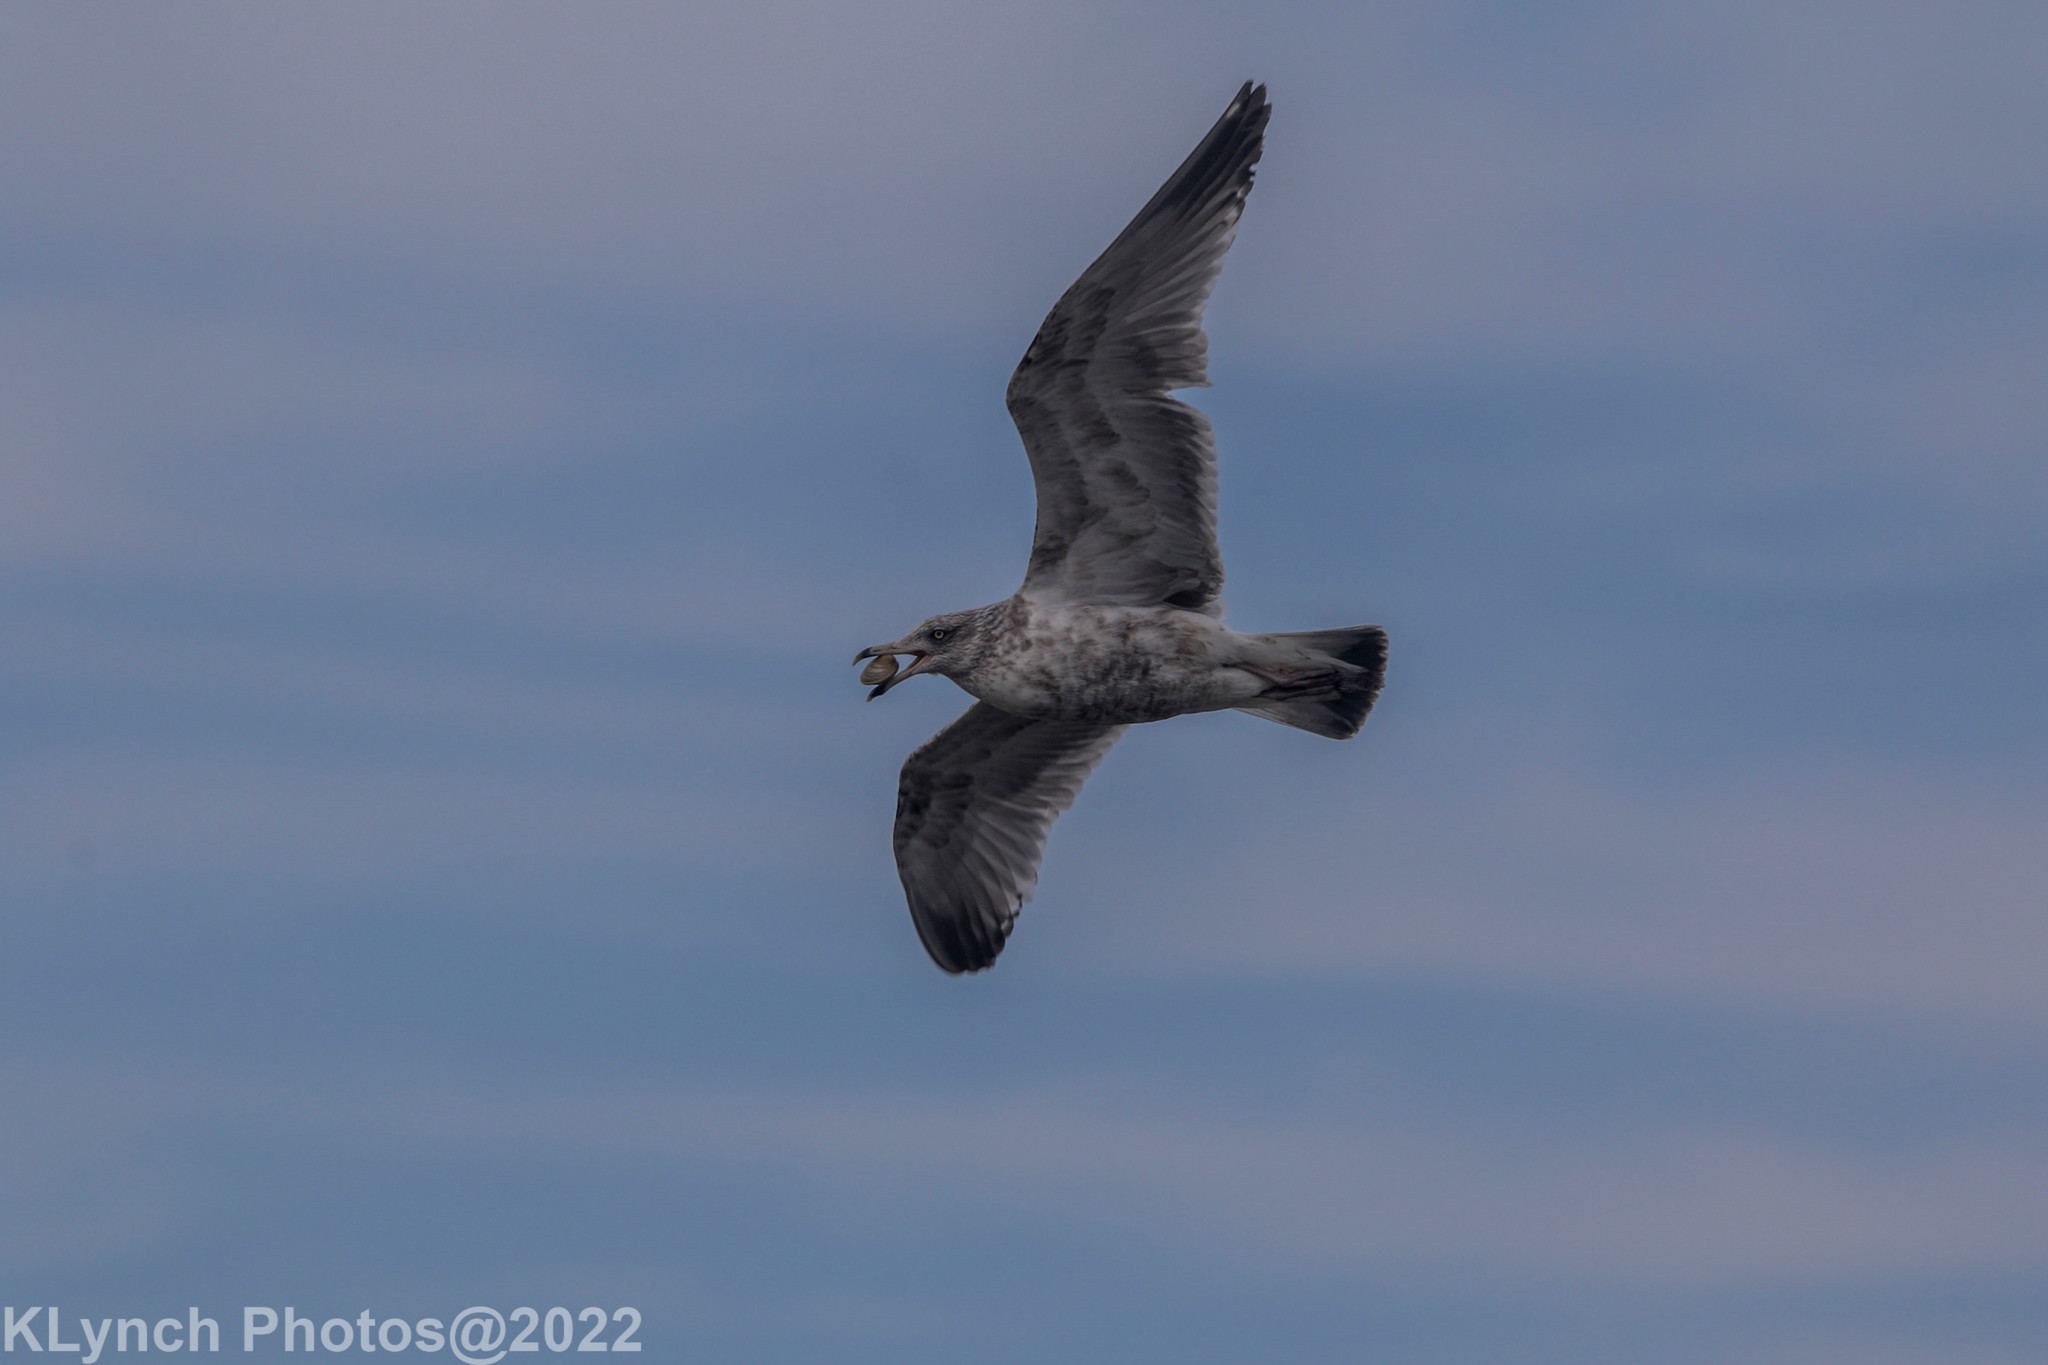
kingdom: Animalia
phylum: Chordata
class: Aves
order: Charadriiformes
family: Laridae
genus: Larus
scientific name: Larus argentatus
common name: Herring gull
